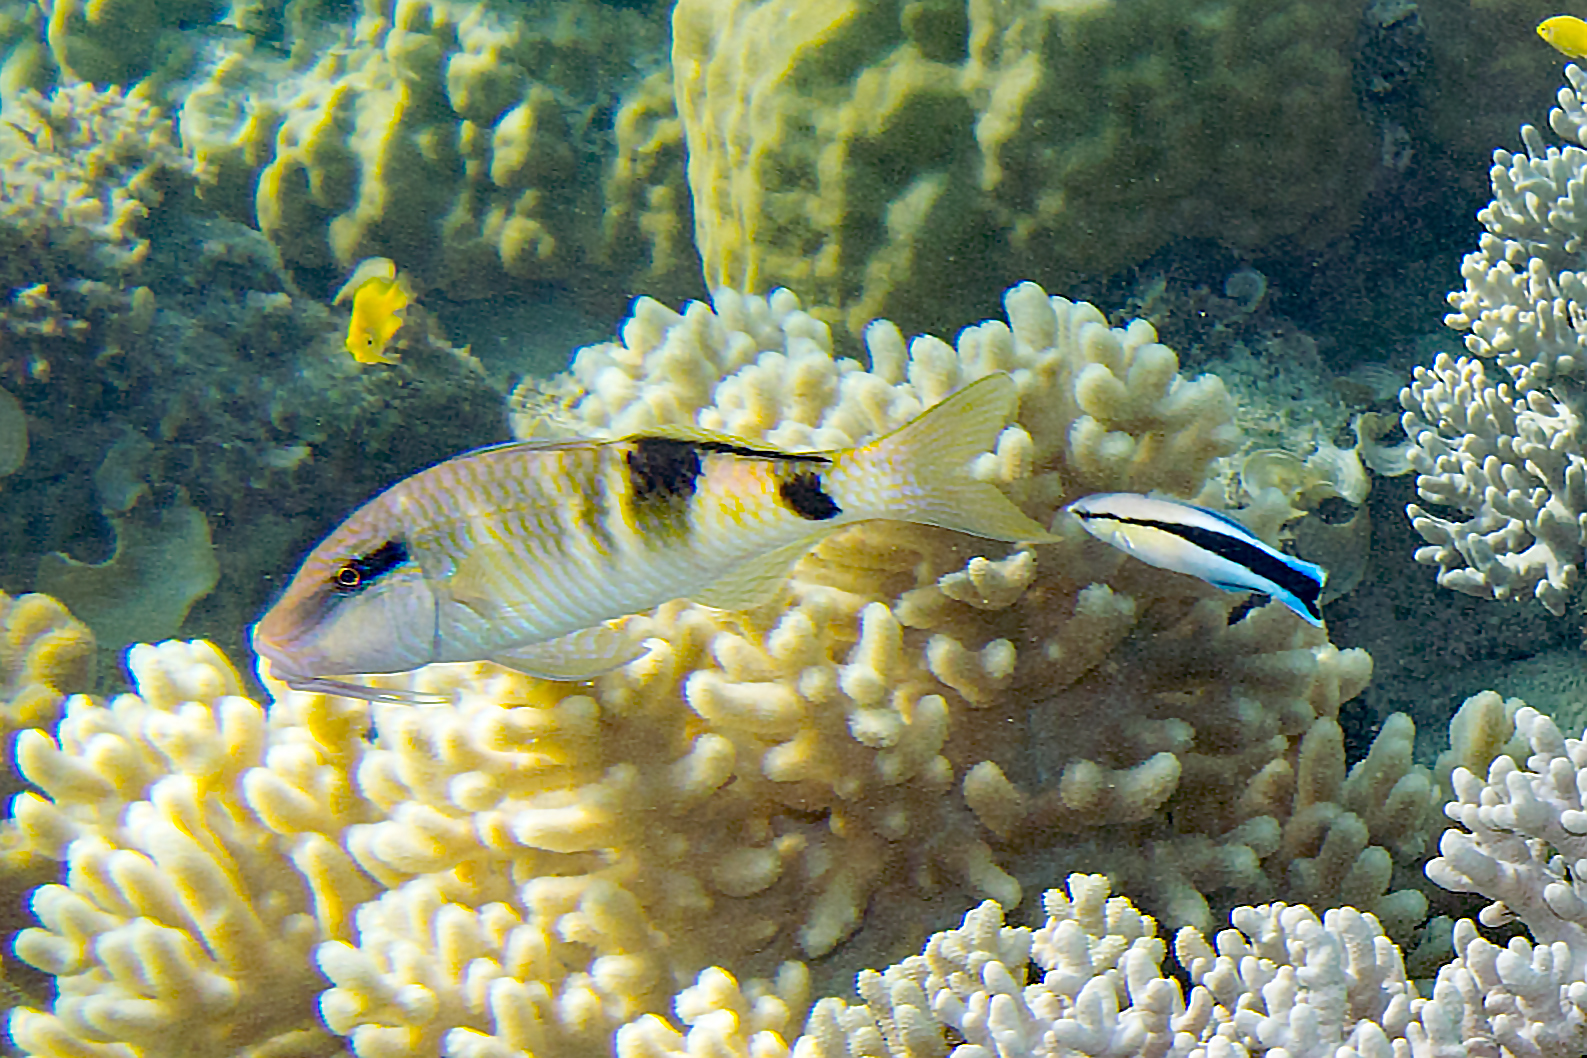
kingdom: Animalia
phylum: Chordata
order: Perciformes
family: Mullidae
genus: Parupeneus
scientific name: Parupeneus multifasciatus
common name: Manybar goatfish
